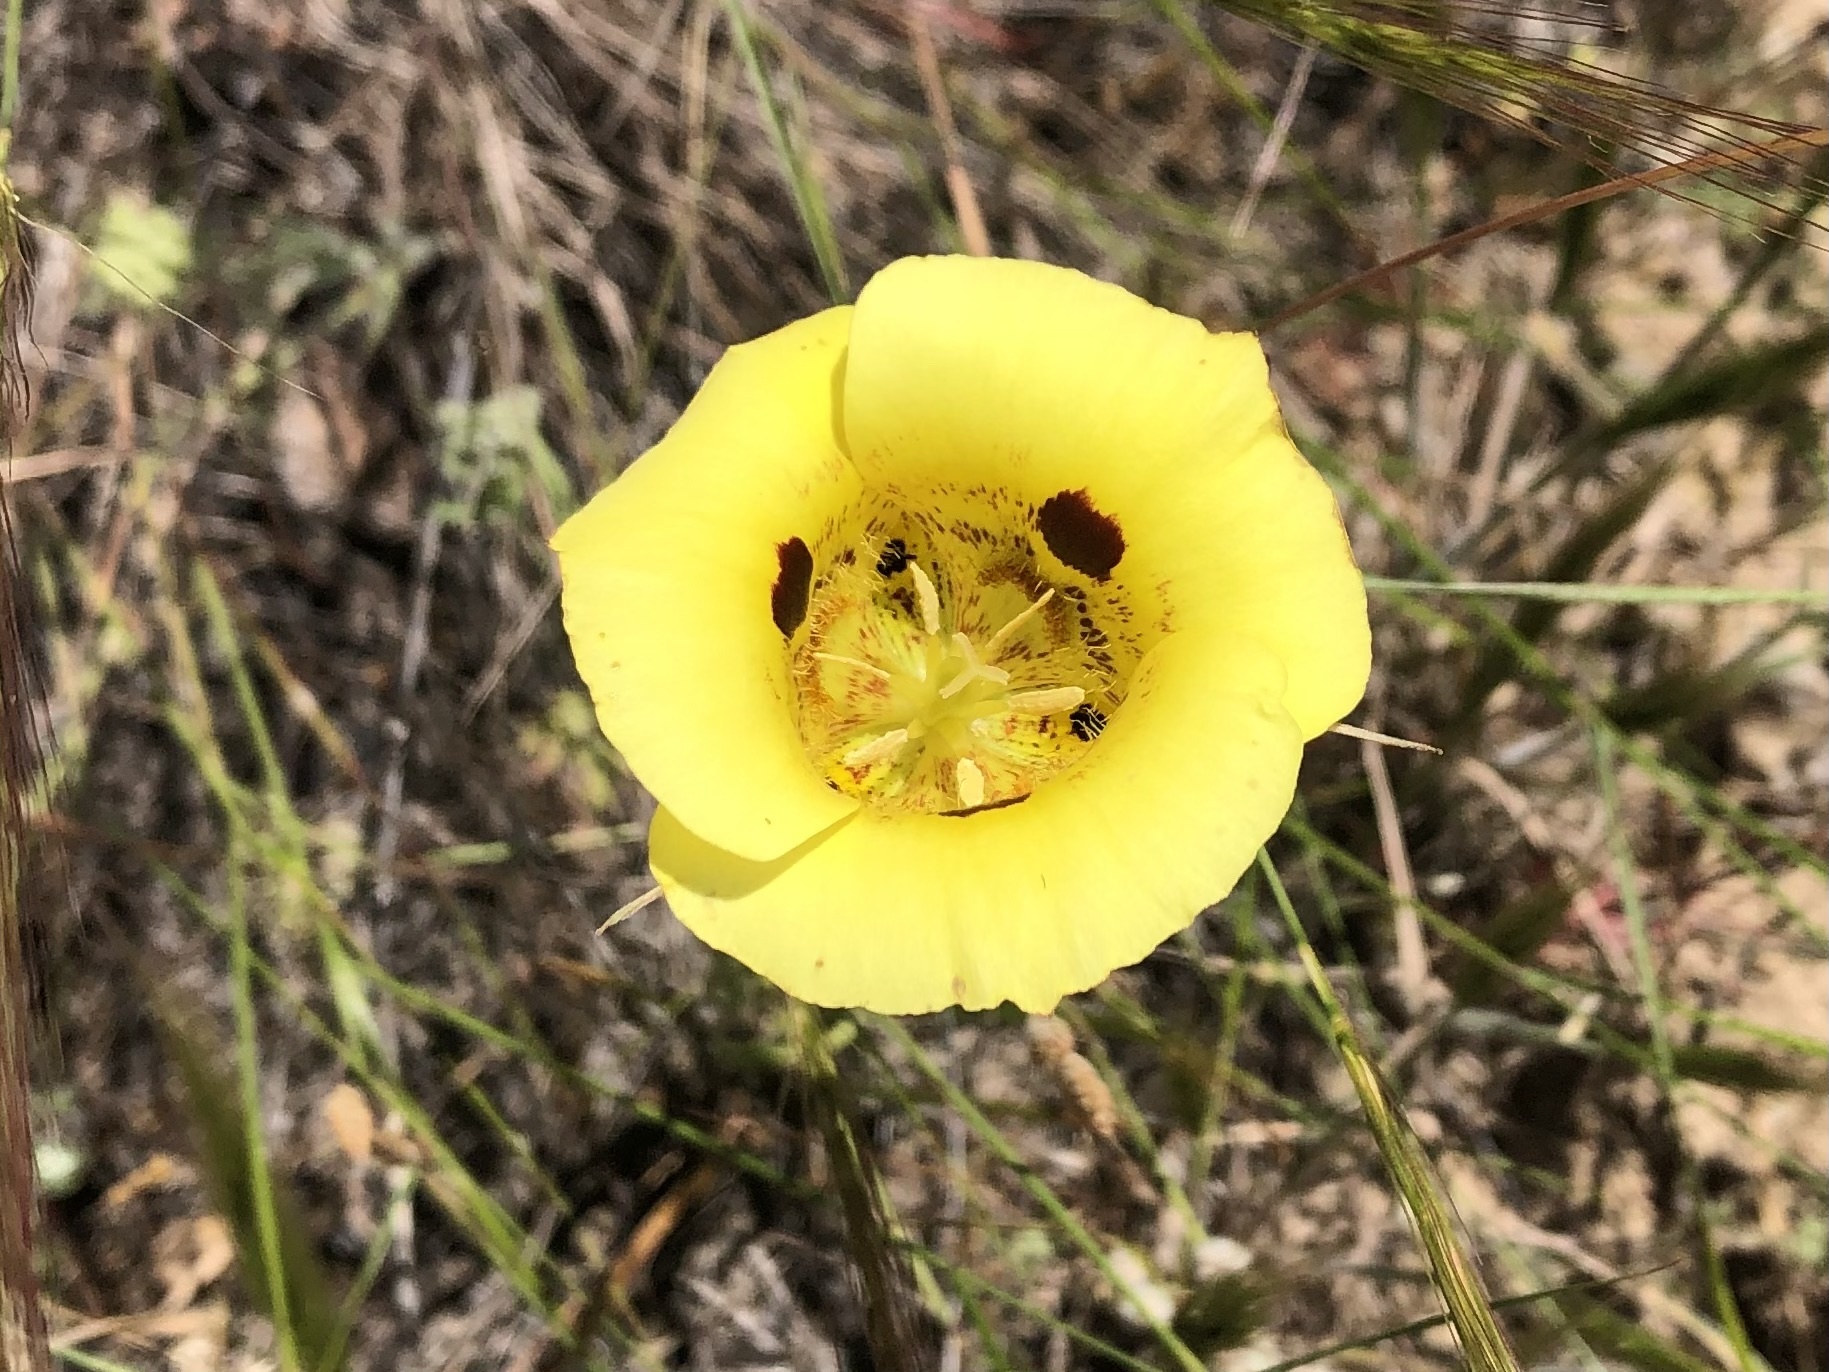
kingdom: Plantae
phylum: Tracheophyta
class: Liliopsida
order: Liliales
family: Liliaceae
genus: Calochortus
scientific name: Calochortus luteus
